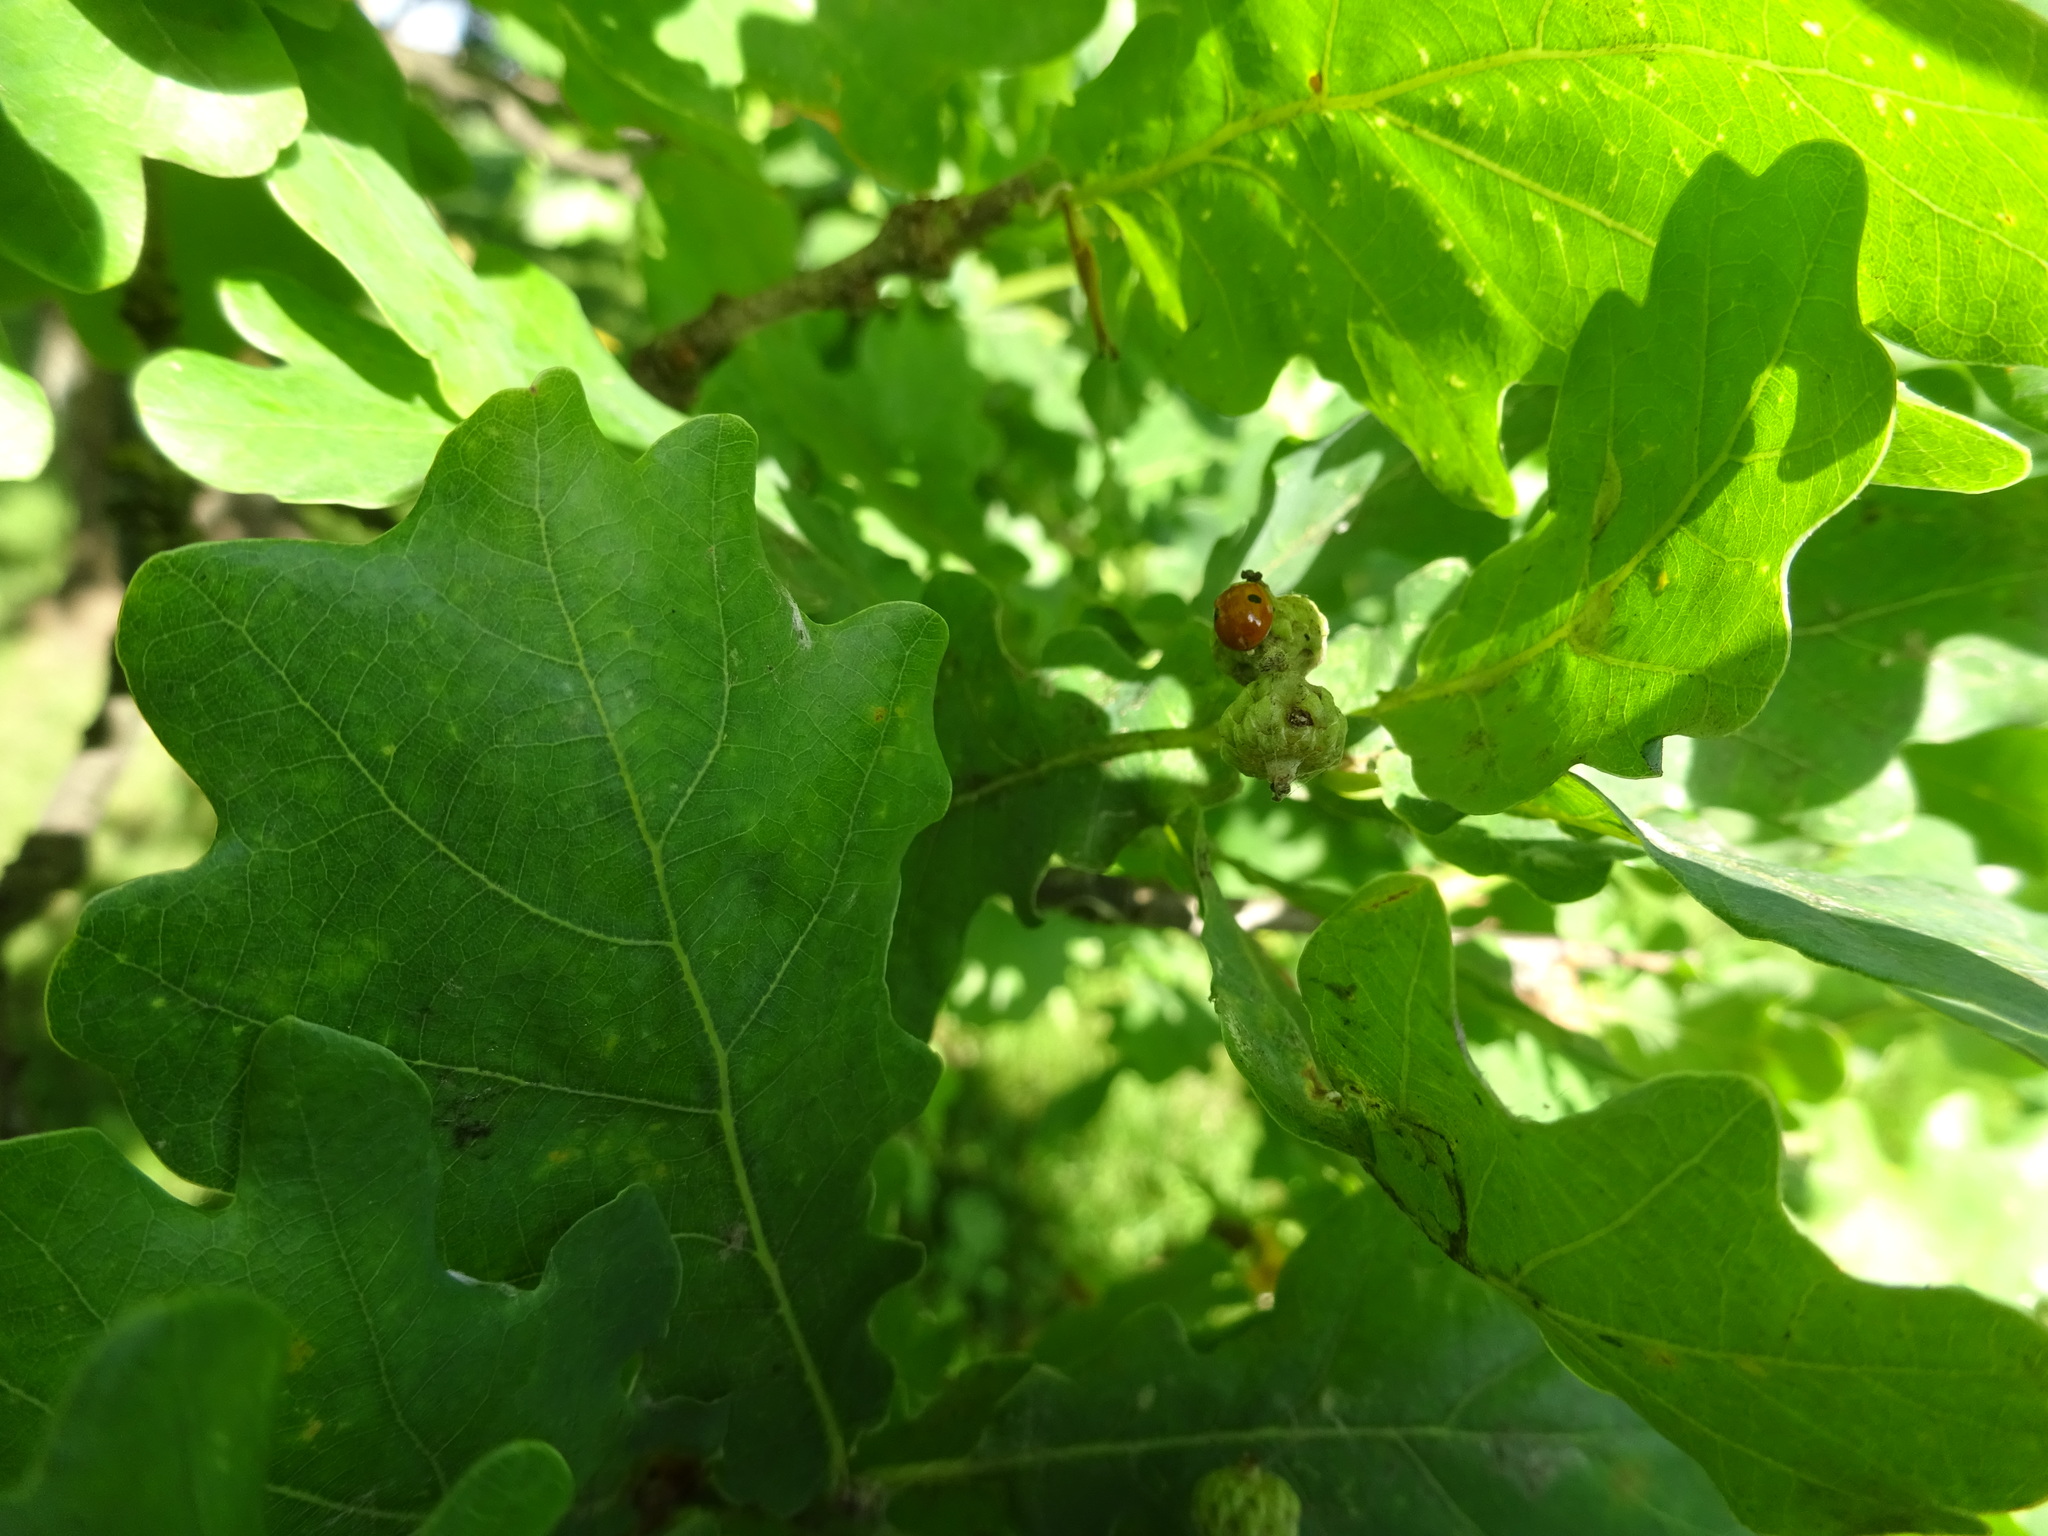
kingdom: Animalia
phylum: Arthropoda
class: Insecta
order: Coleoptera
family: Coccinellidae
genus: Adalia
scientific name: Adalia bipunctata
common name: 2-spot ladybird
